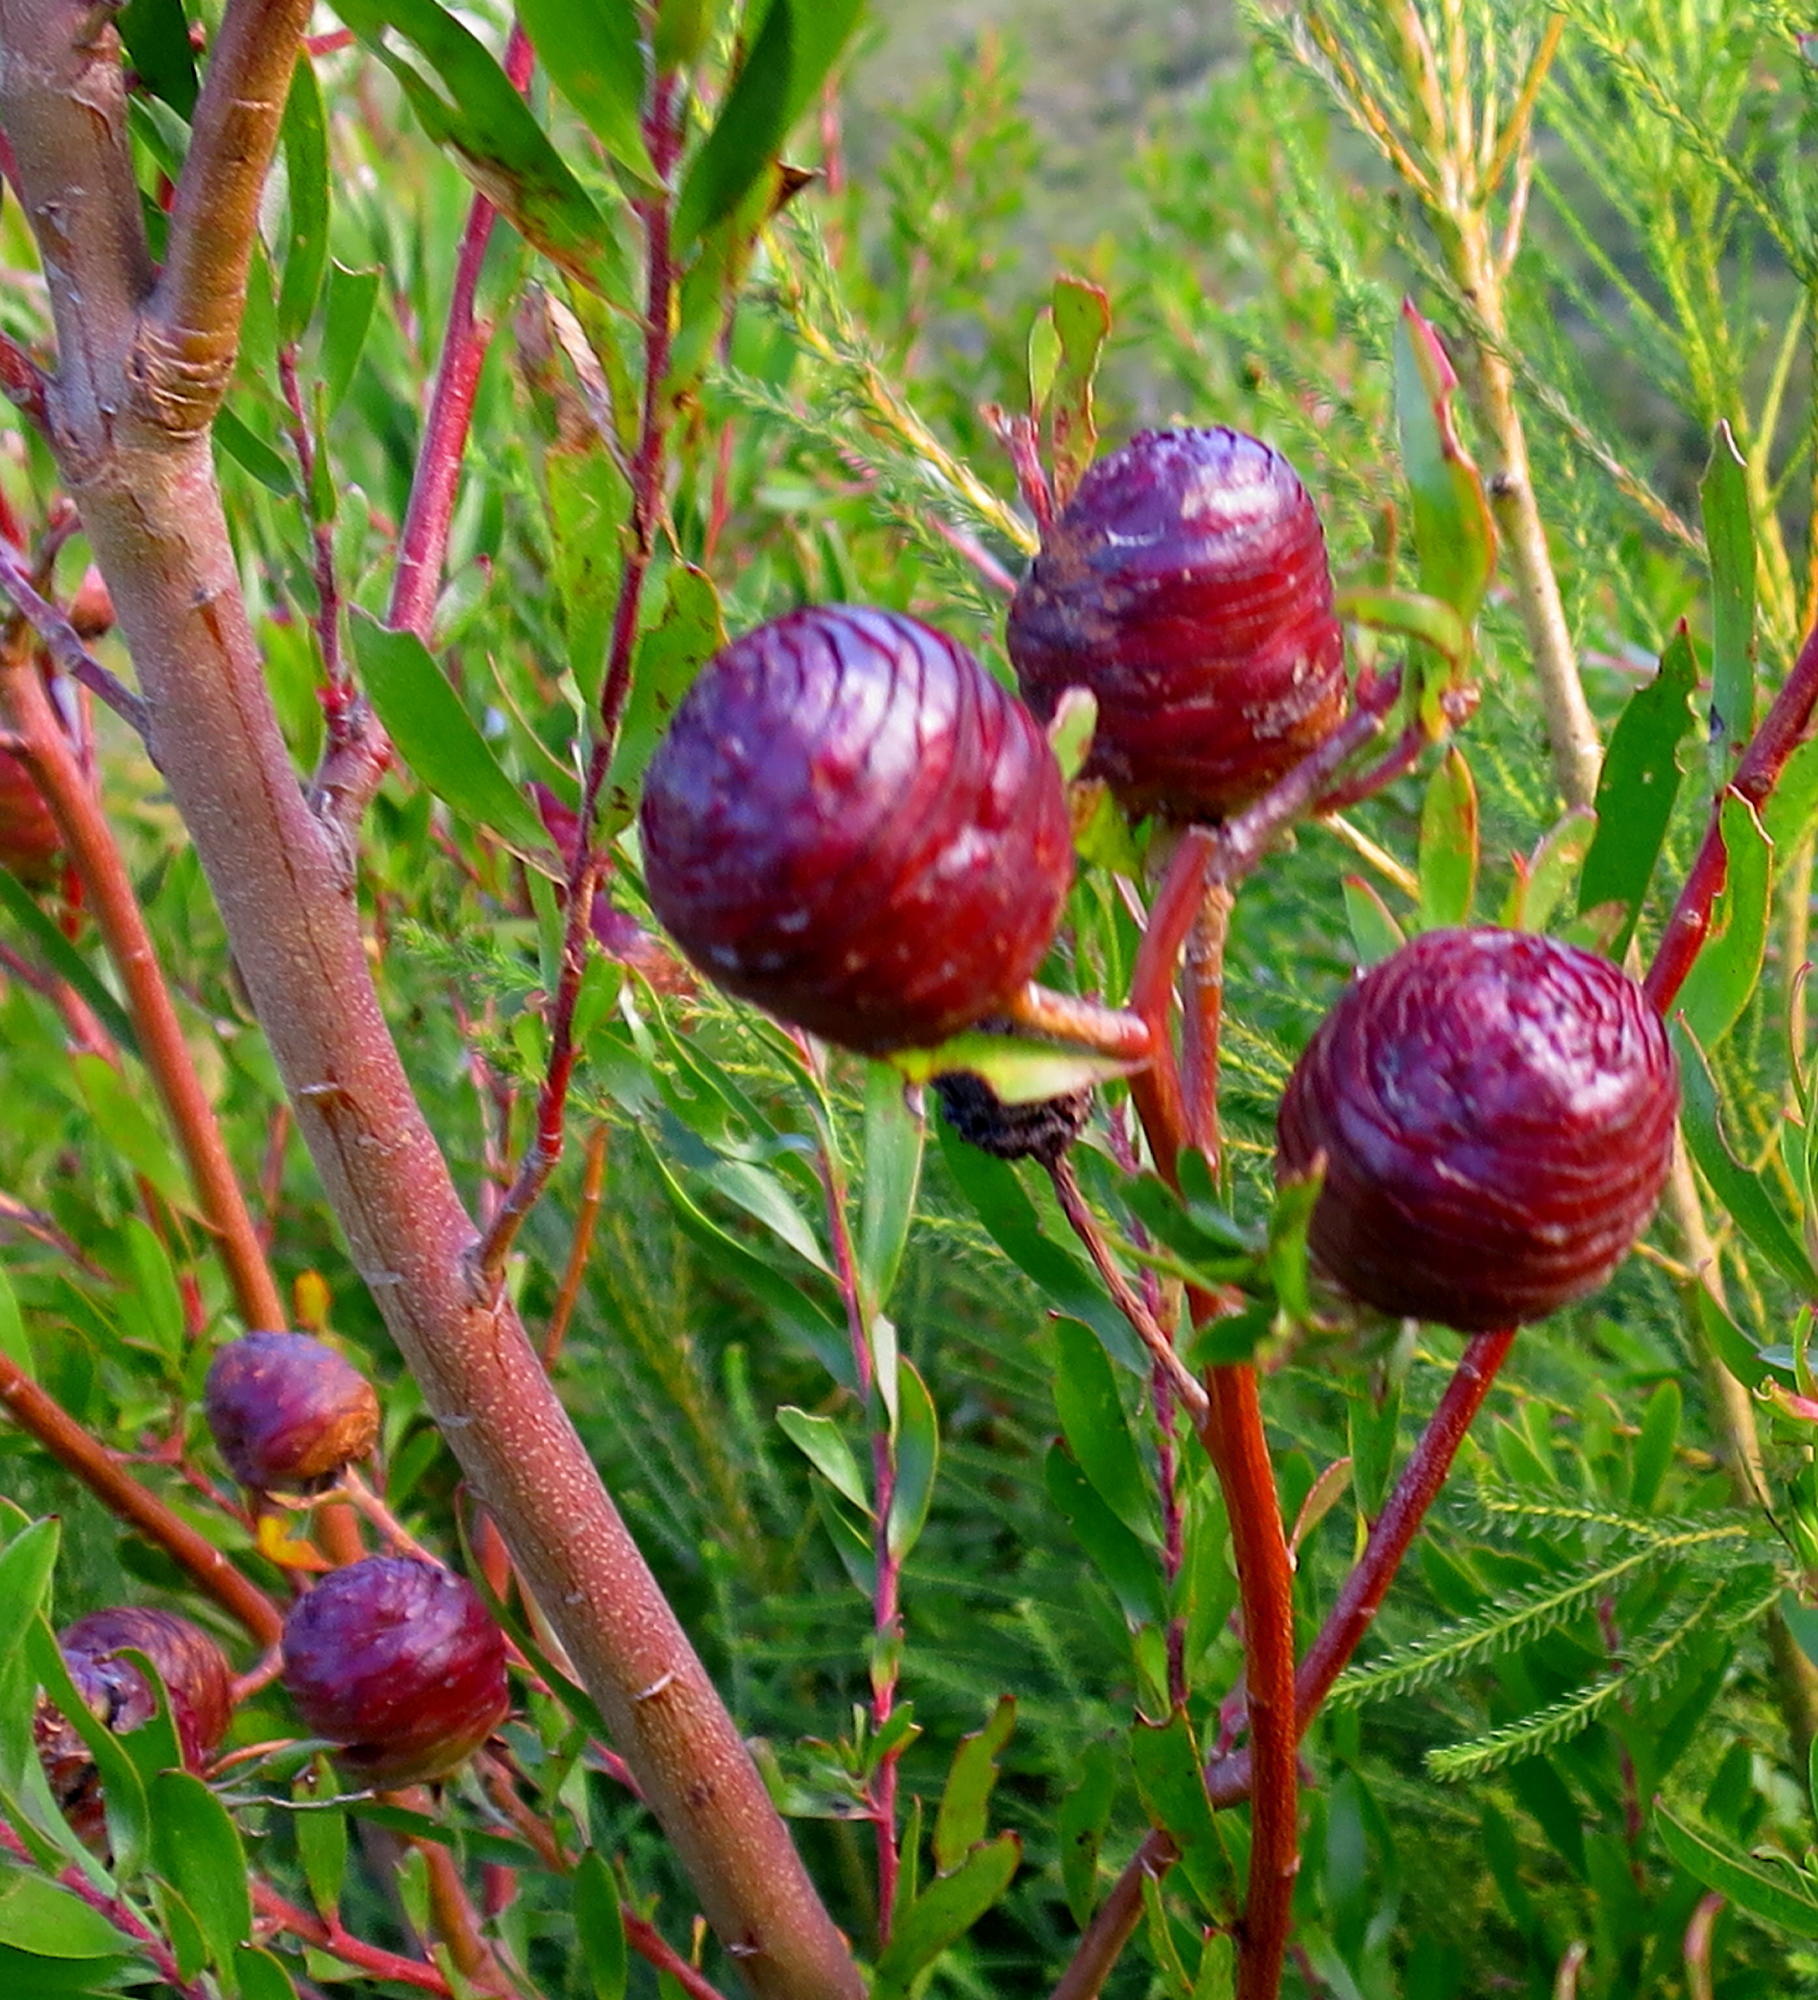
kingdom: Plantae
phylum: Tracheophyta
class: Magnoliopsida
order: Proteales
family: Proteaceae
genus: Leucadendron
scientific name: Leucadendron conicum
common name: Garden route conebush
